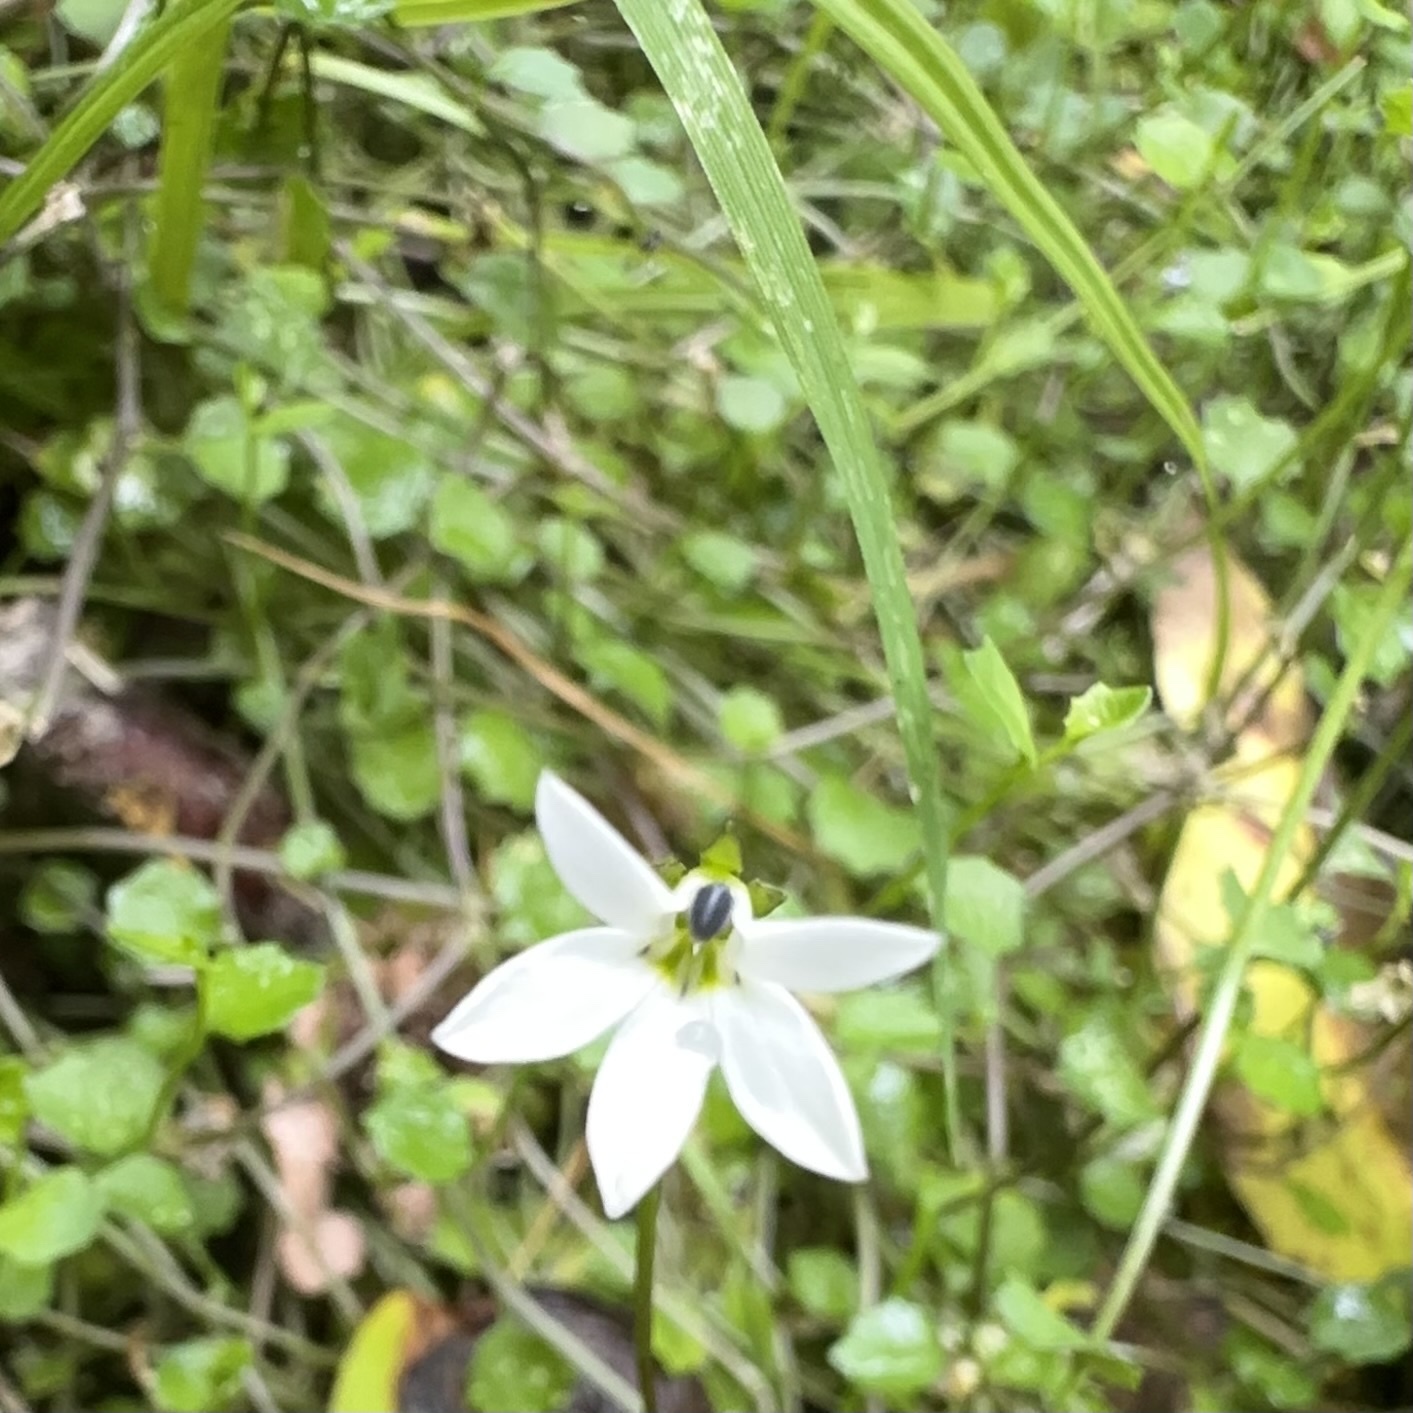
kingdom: Plantae
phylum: Tracheophyta
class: Magnoliopsida
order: Asterales
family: Campanulaceae
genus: Lobelia
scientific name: Lobelia angulata
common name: Lawn lobelia
